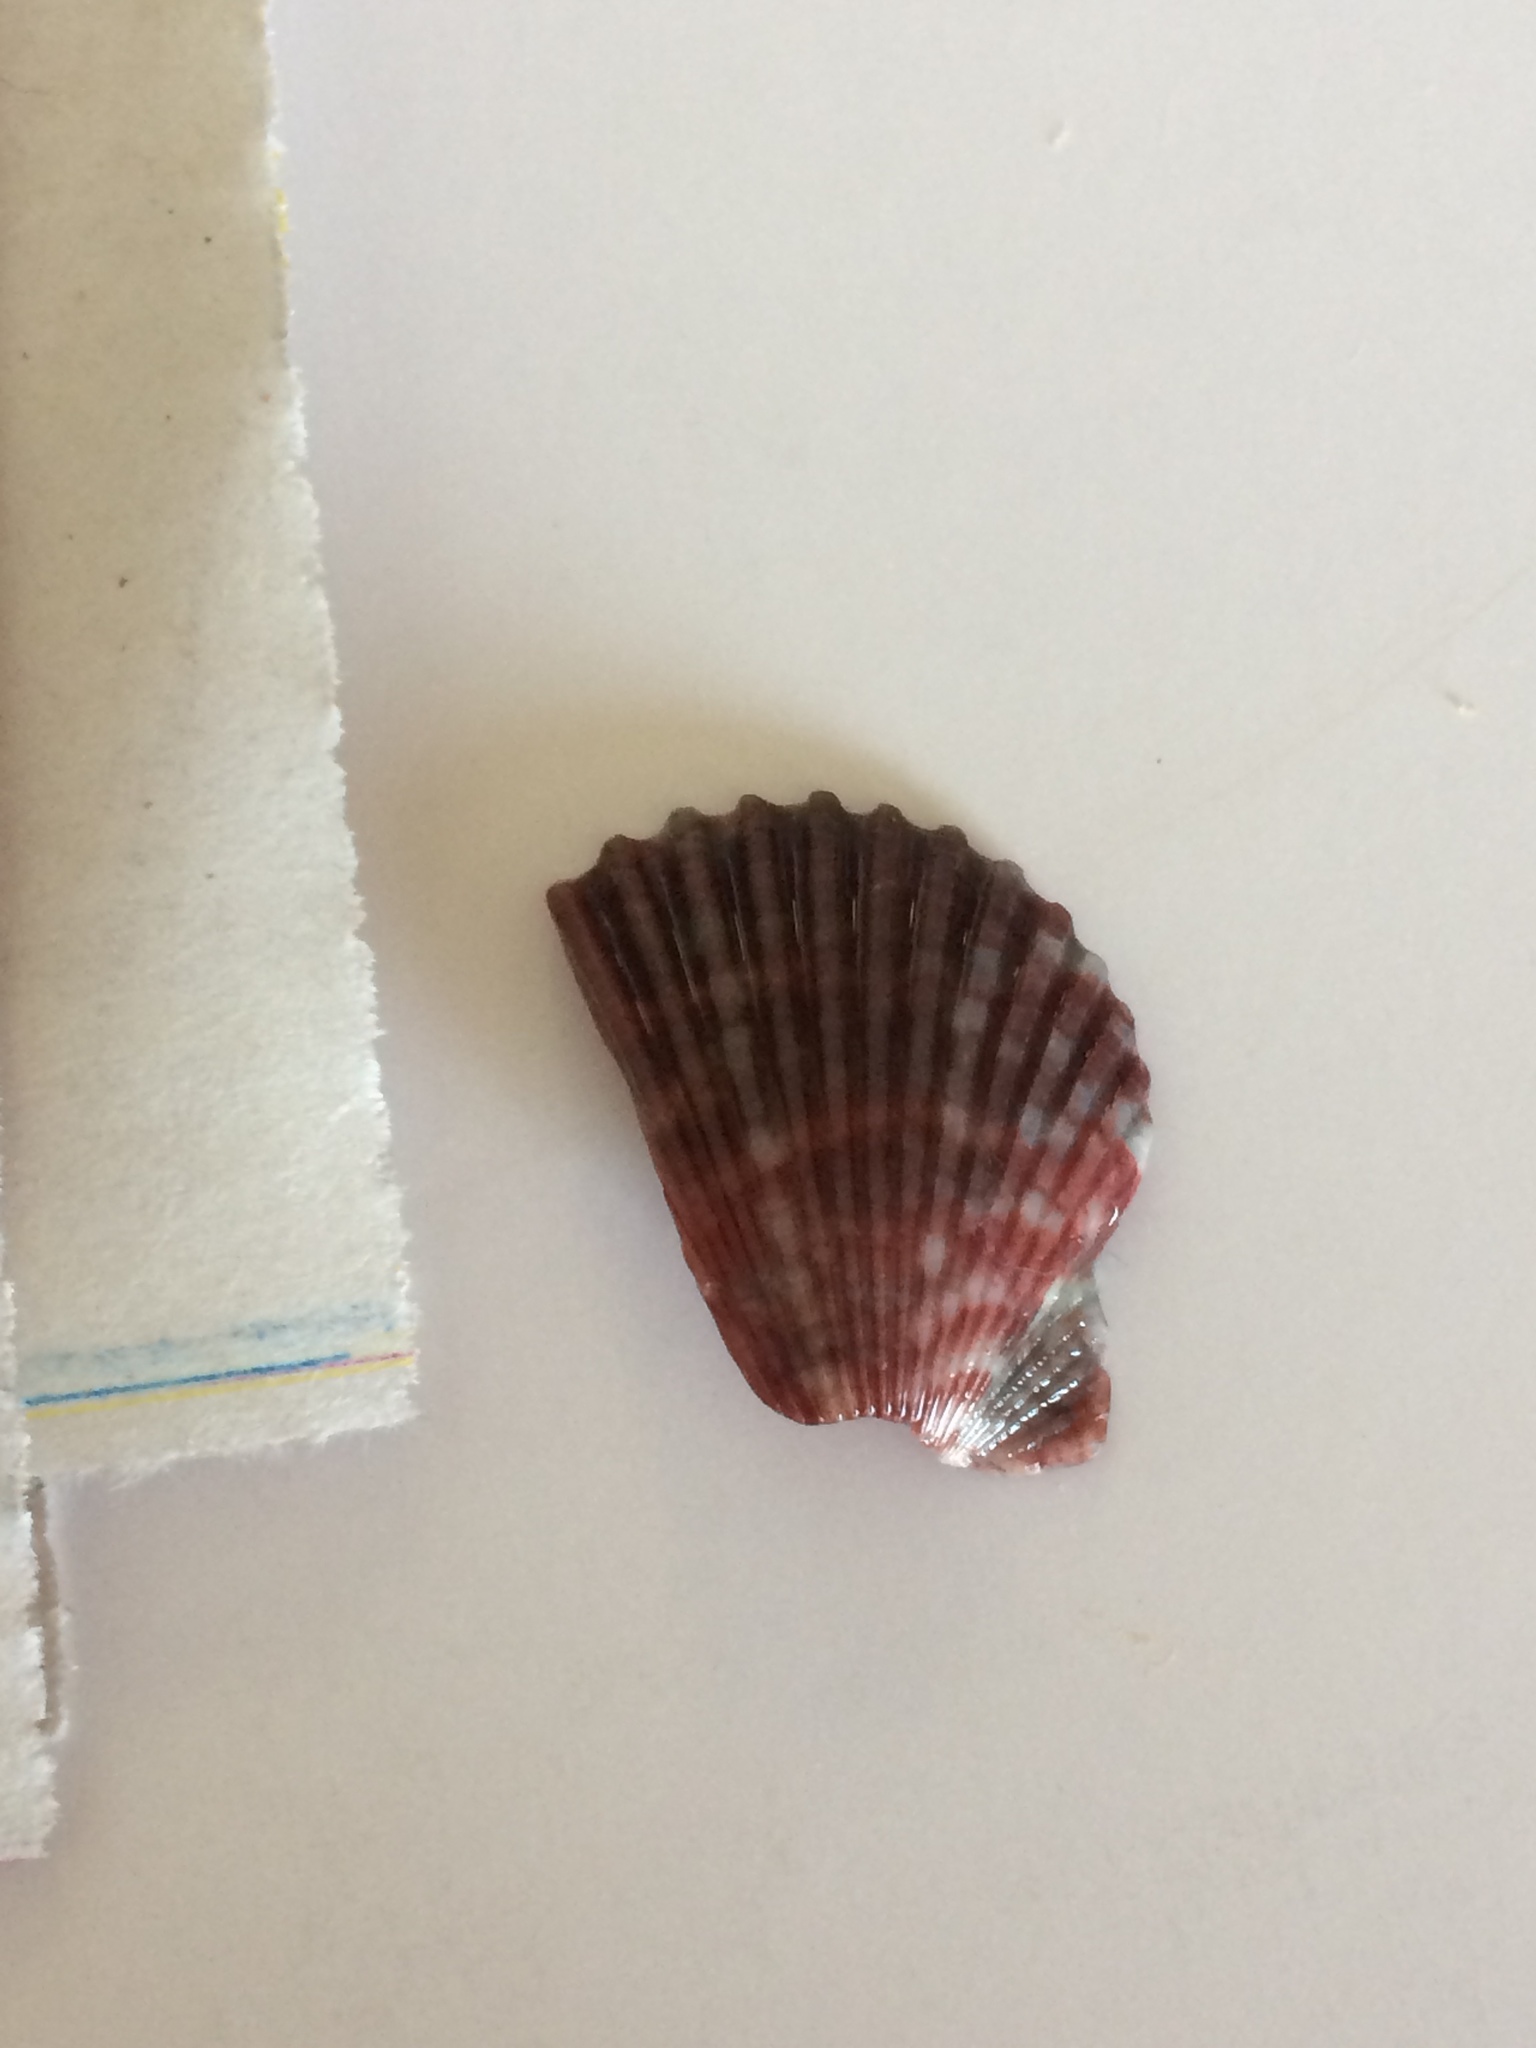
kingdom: Animalia
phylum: Mollusca
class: Bivalvia
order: Pectinida
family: Pectinidae
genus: Argopecten
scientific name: Argopecten gibbus
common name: Atlantic calico scallop
